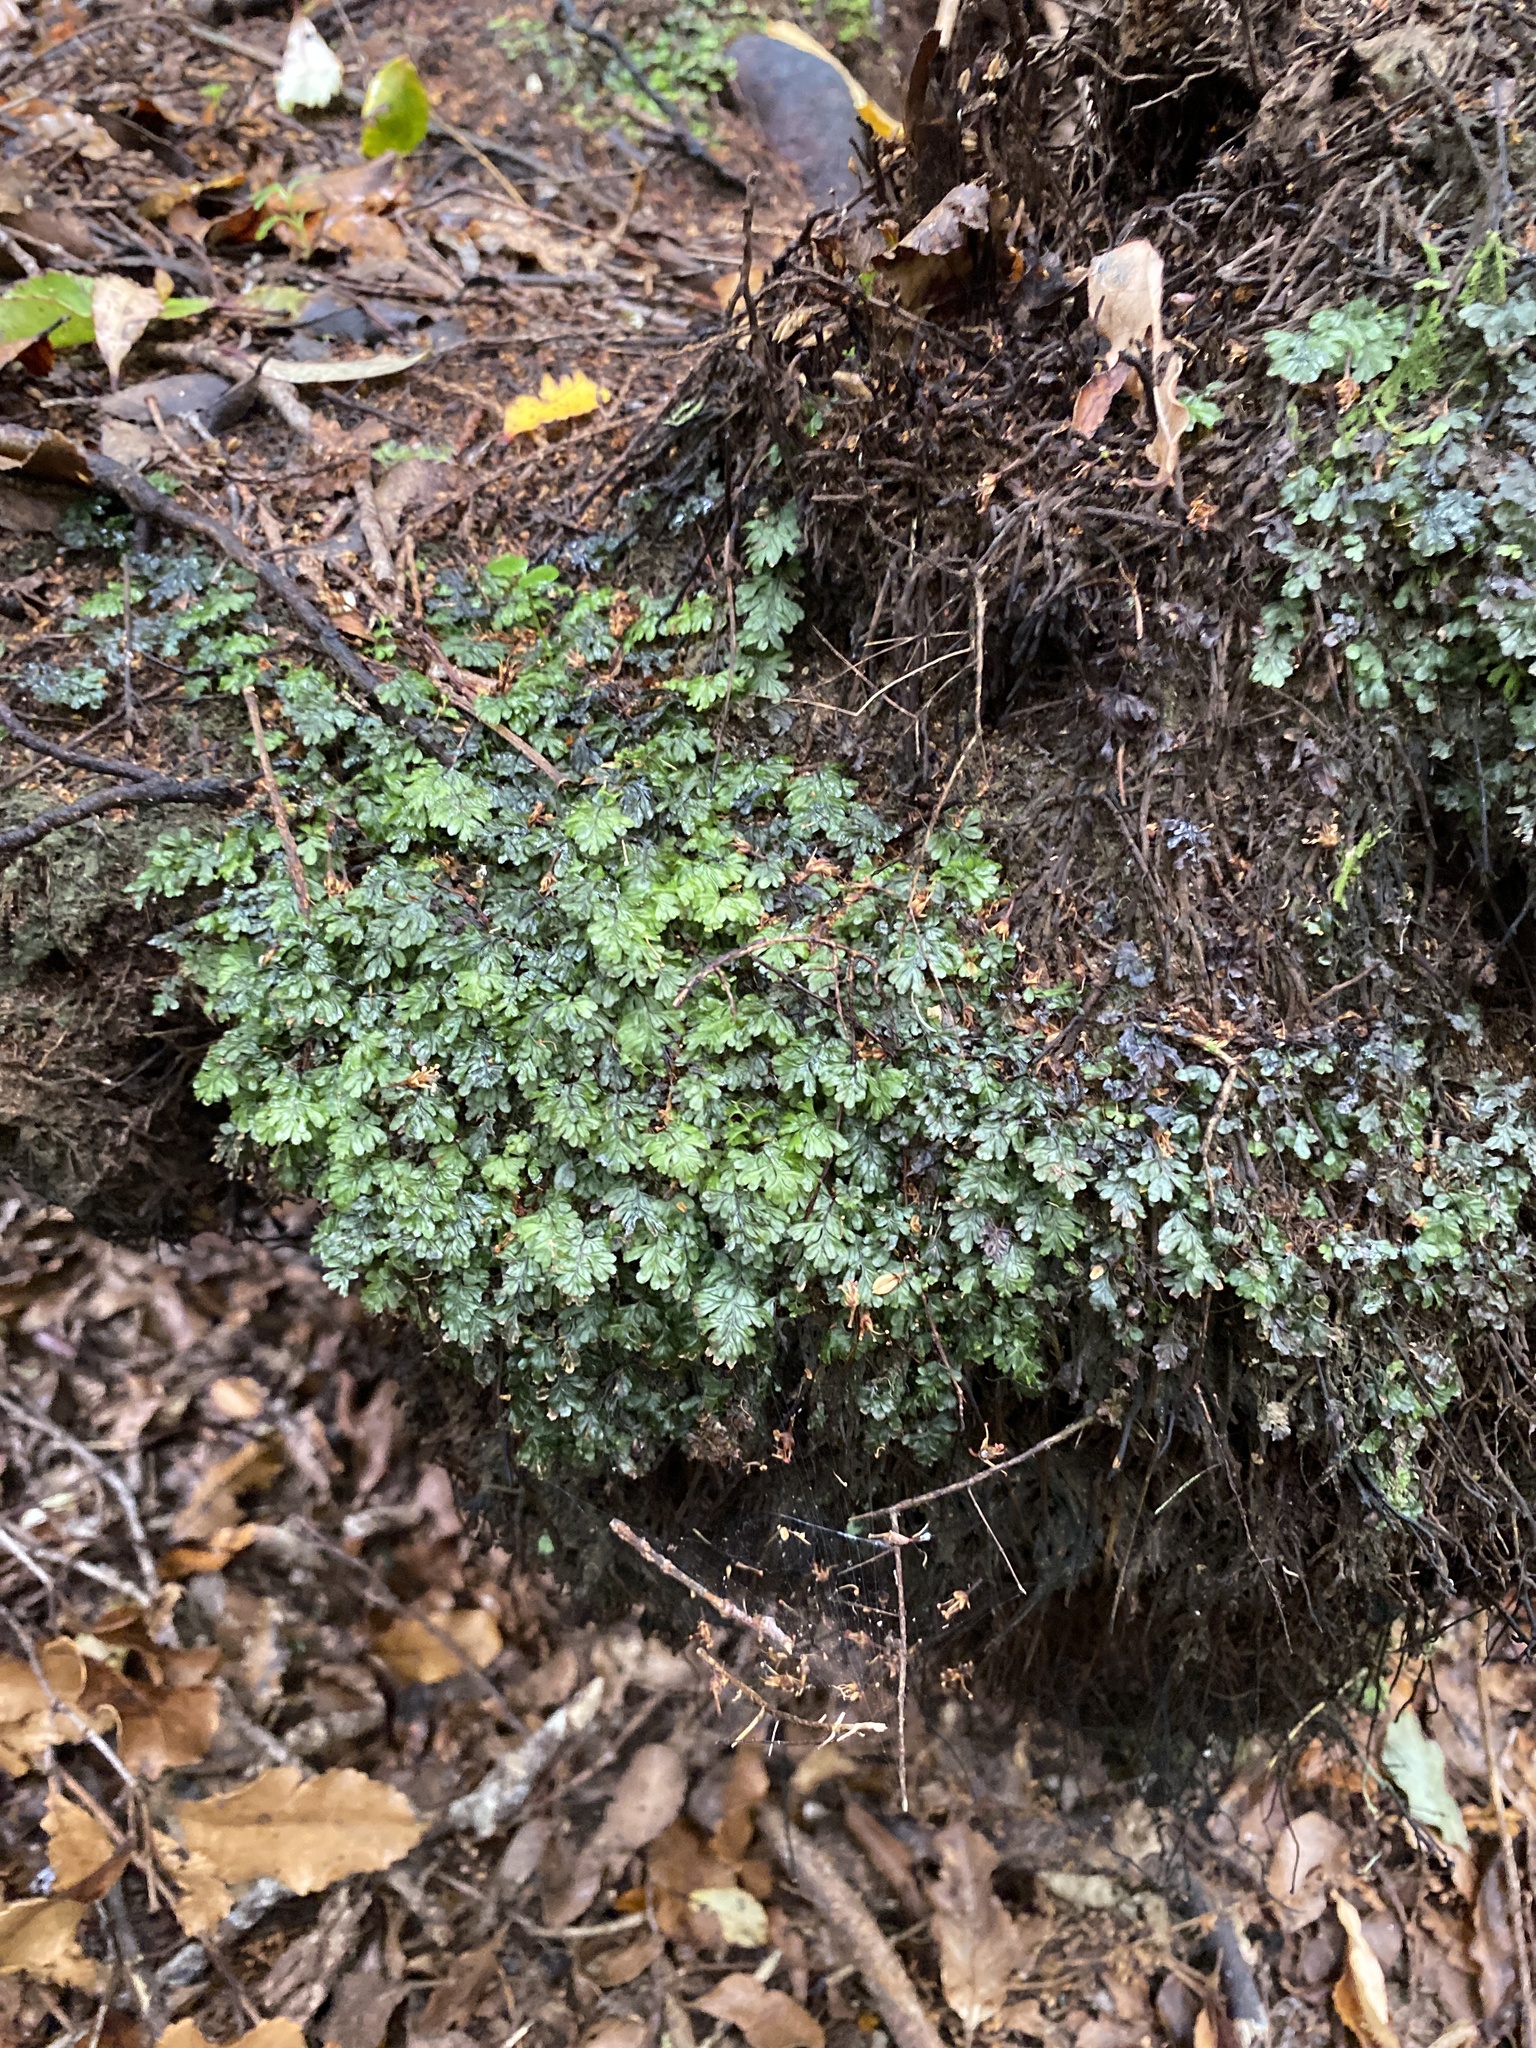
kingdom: Plantae
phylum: Tracheophyta
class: Polypodiopsida
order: Hymenophyllales
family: Hymenophyllaceae
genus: Hymenophyllum
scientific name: Hymenophyllum revolutum
